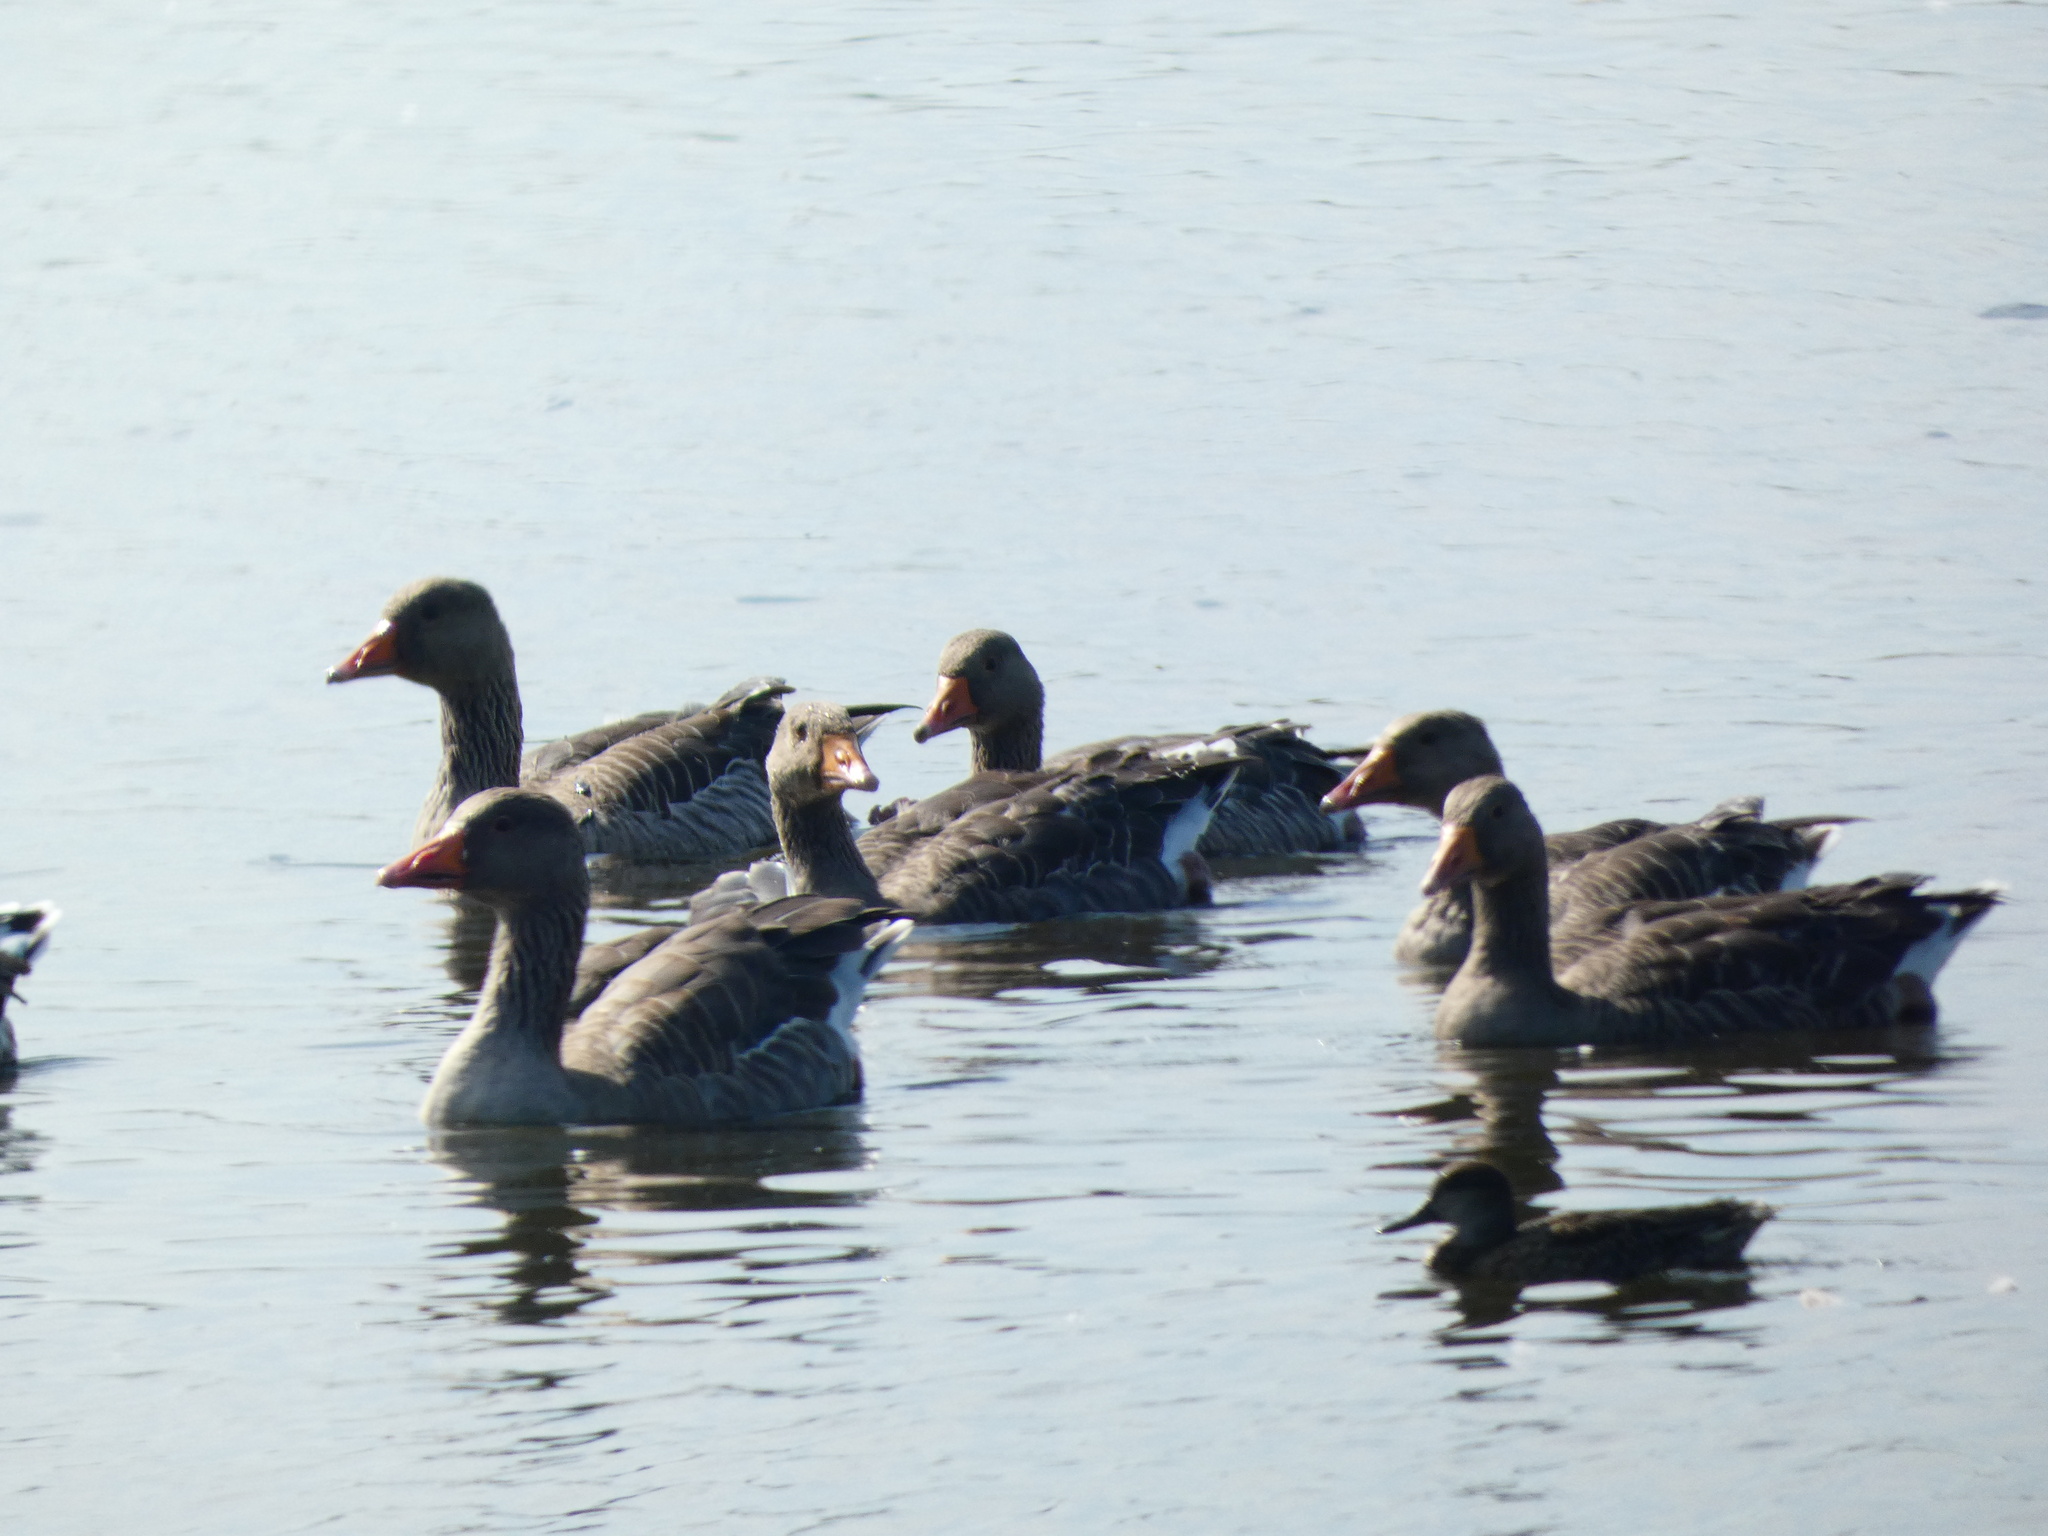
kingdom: Animalia
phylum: Chordata
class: Aves
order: Anseriformes
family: Anatidae
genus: Anser
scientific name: Anser anser
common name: Greylag goose
